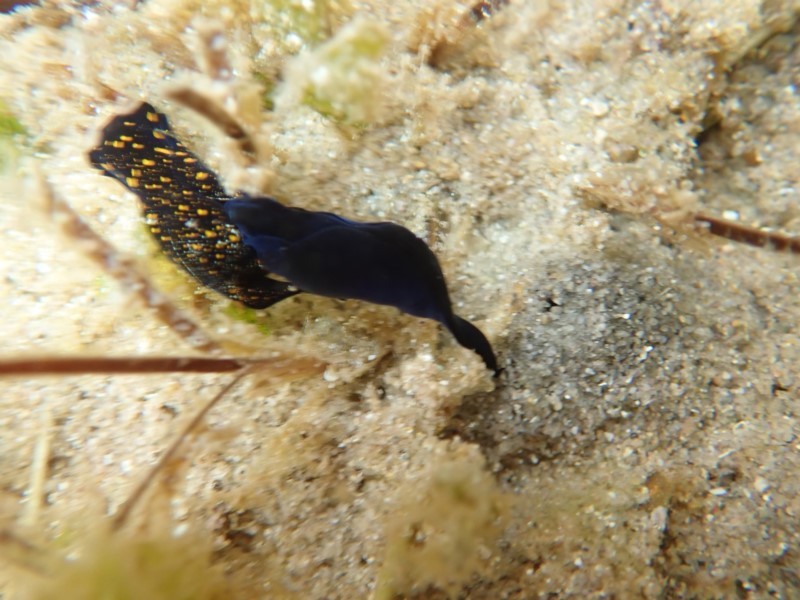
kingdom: Animalia
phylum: Mollusca
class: Gastropoda
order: Cephalaspidea
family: Aglajidae
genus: Mariaglaja
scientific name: Mariaglaja tsurugensis
